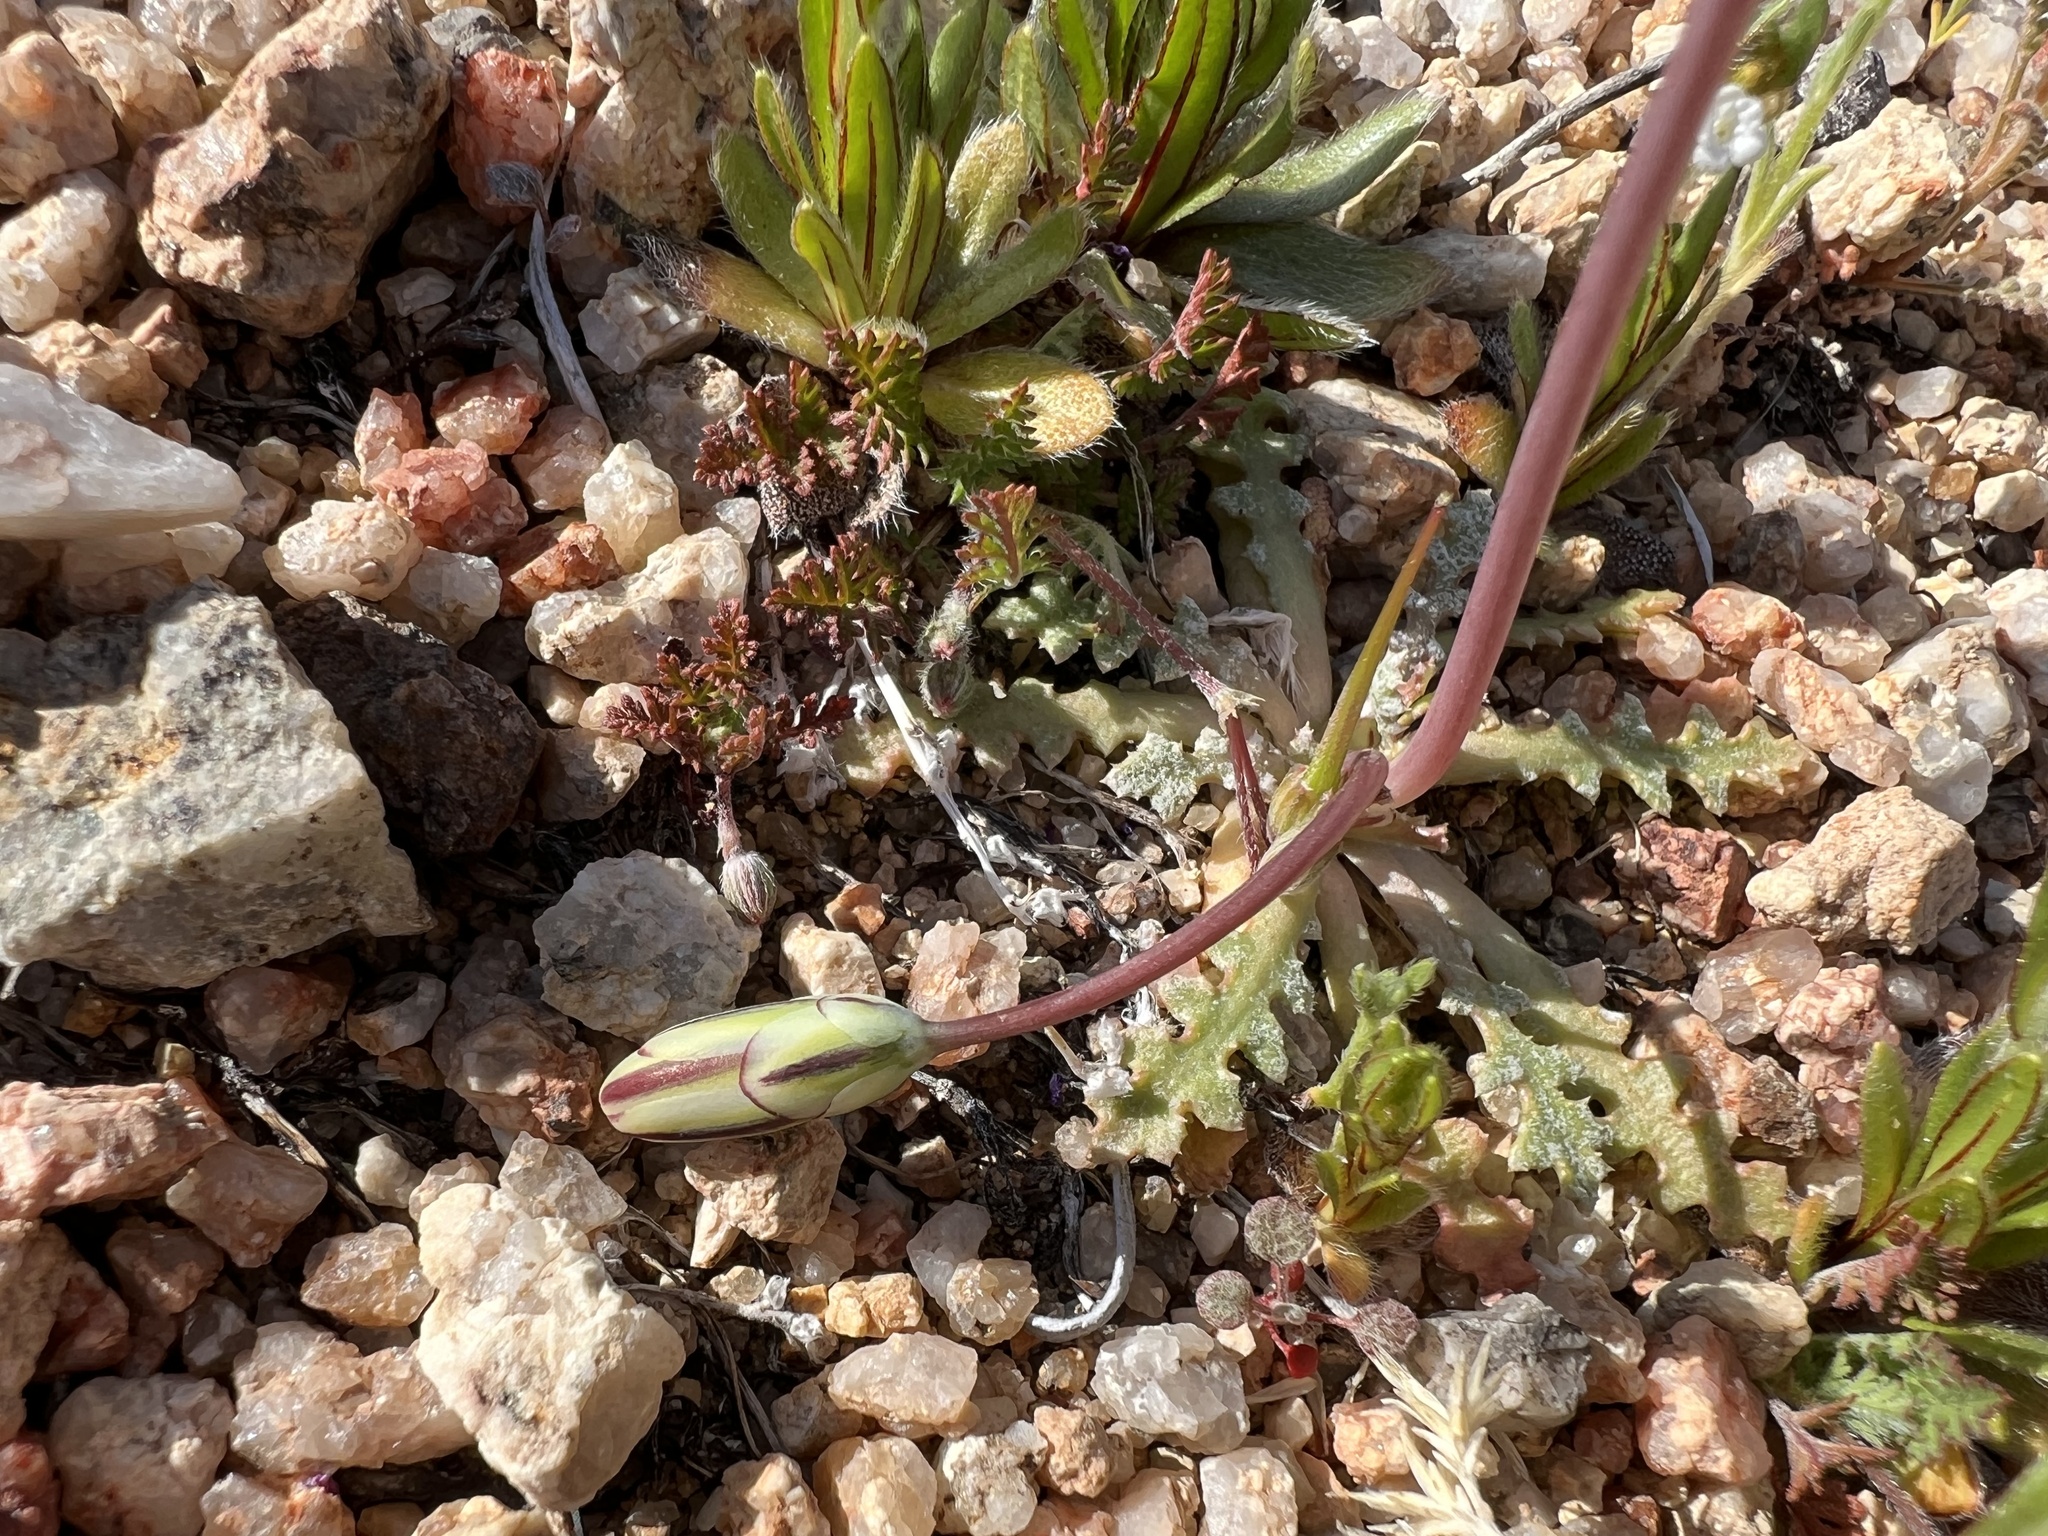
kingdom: Plantae
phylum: Tracheophyta
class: Magnoliopsida
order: Asterales
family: Asteraceae
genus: Anisocoma
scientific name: Anisocoma acaulis
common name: Scalebud
